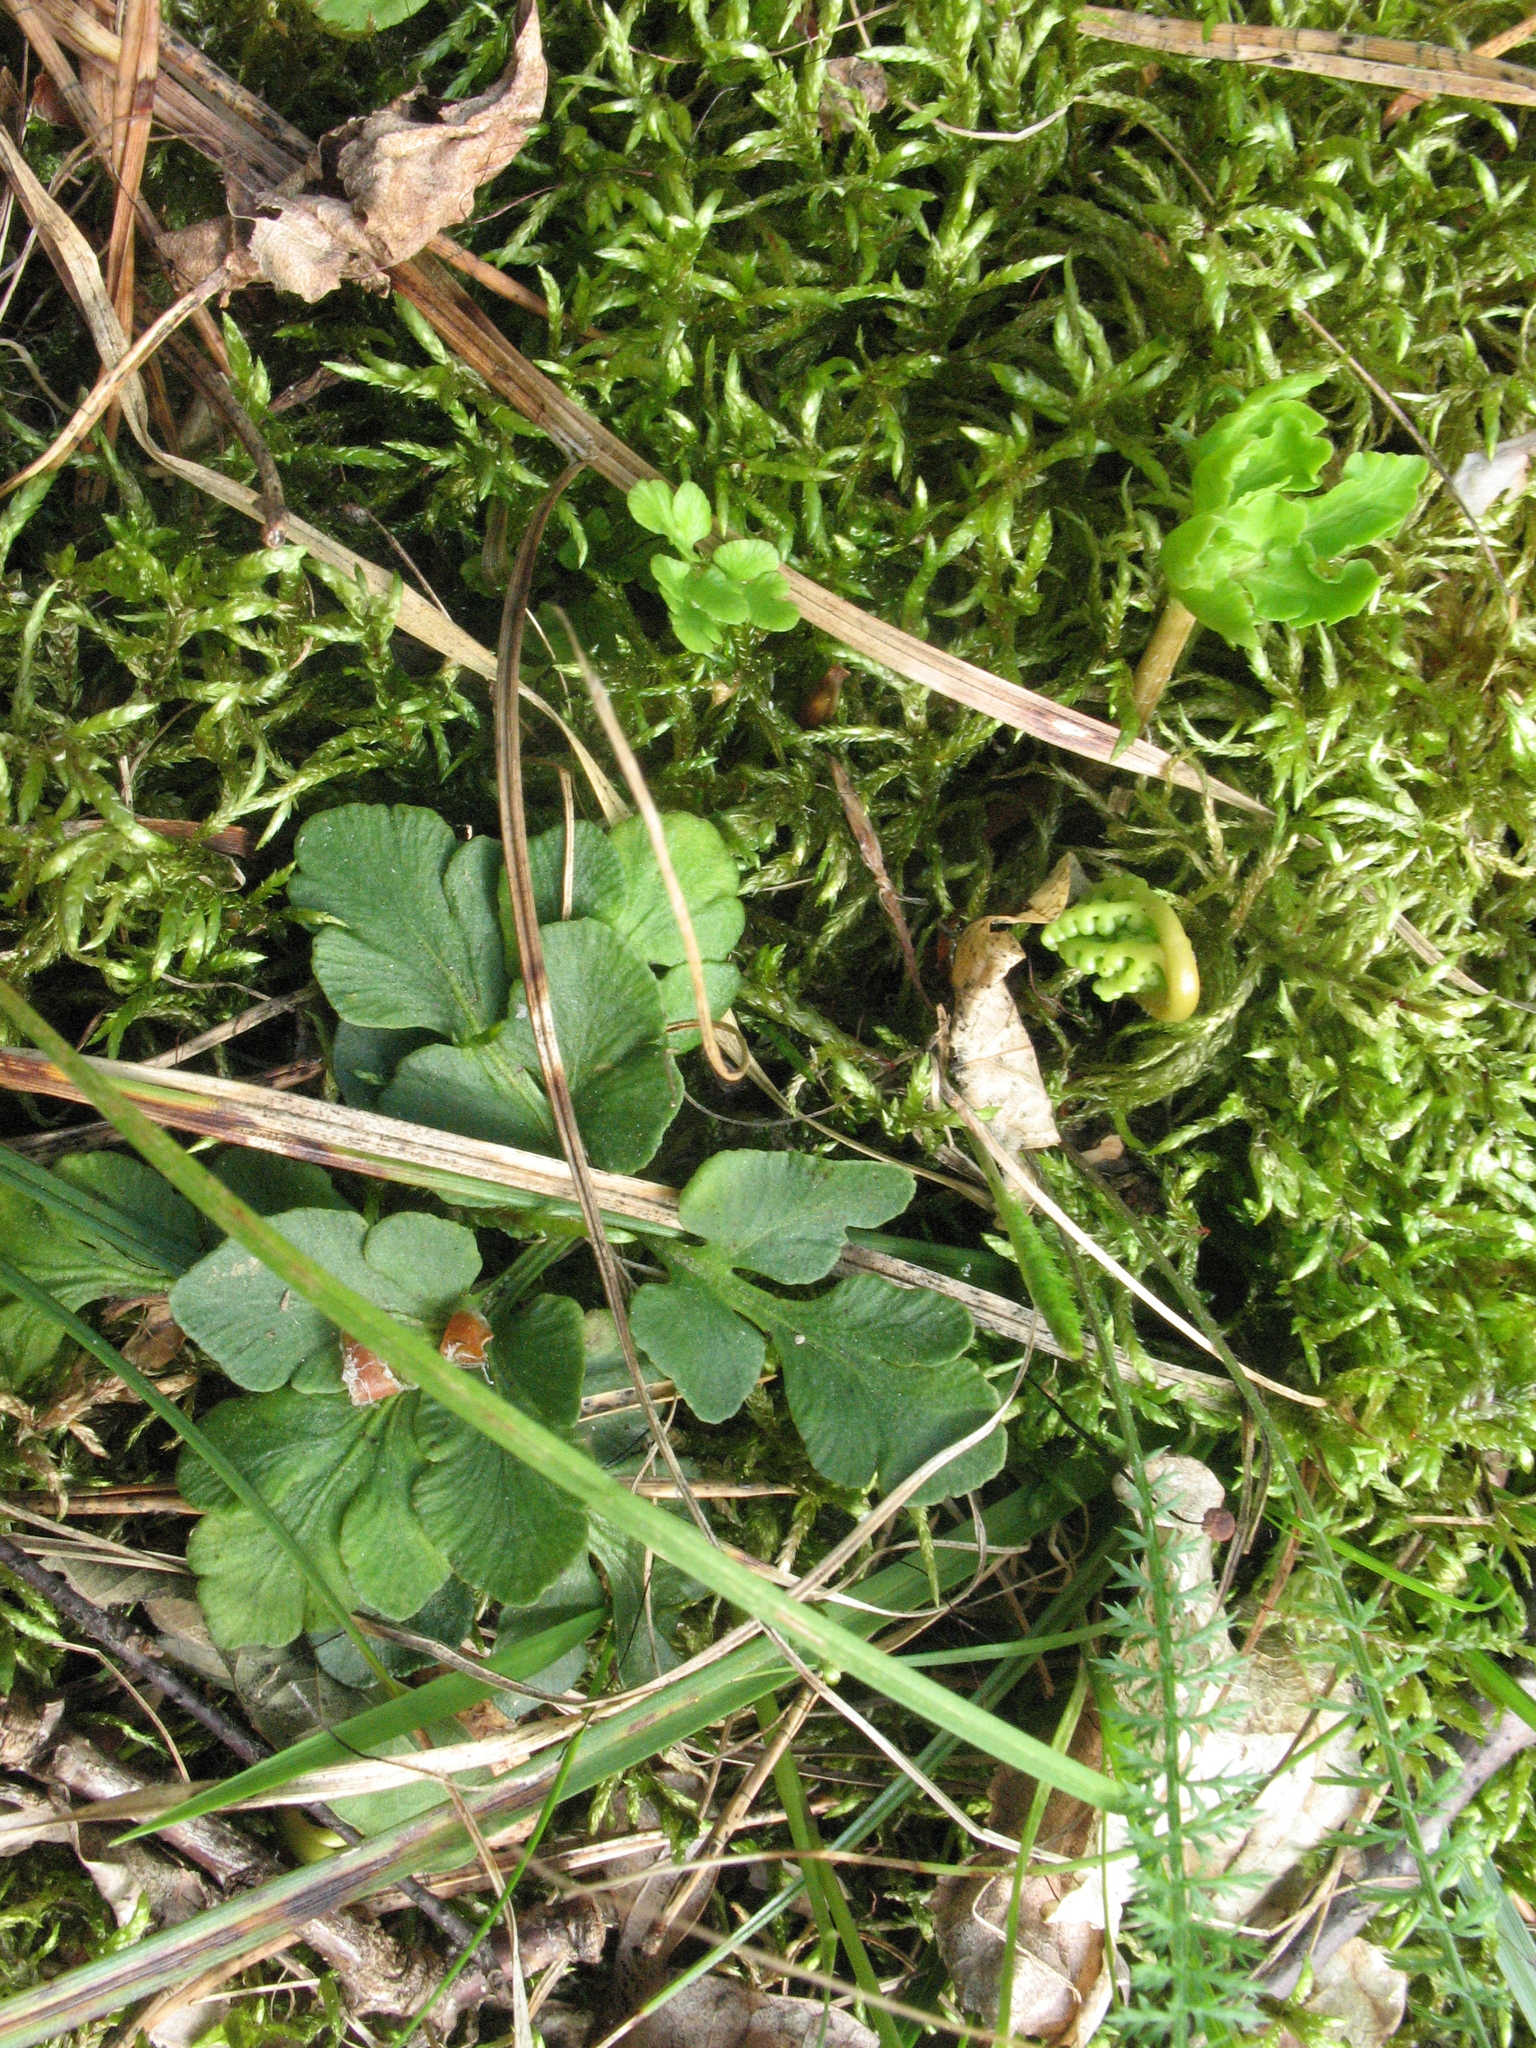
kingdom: Plantae
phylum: Tracheophyta
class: Polypodiopsida
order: Ophioglossales
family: Ophioglossaceae
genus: Sceptridium
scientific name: Sceptridium multifidum
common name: Leathery grape fern
